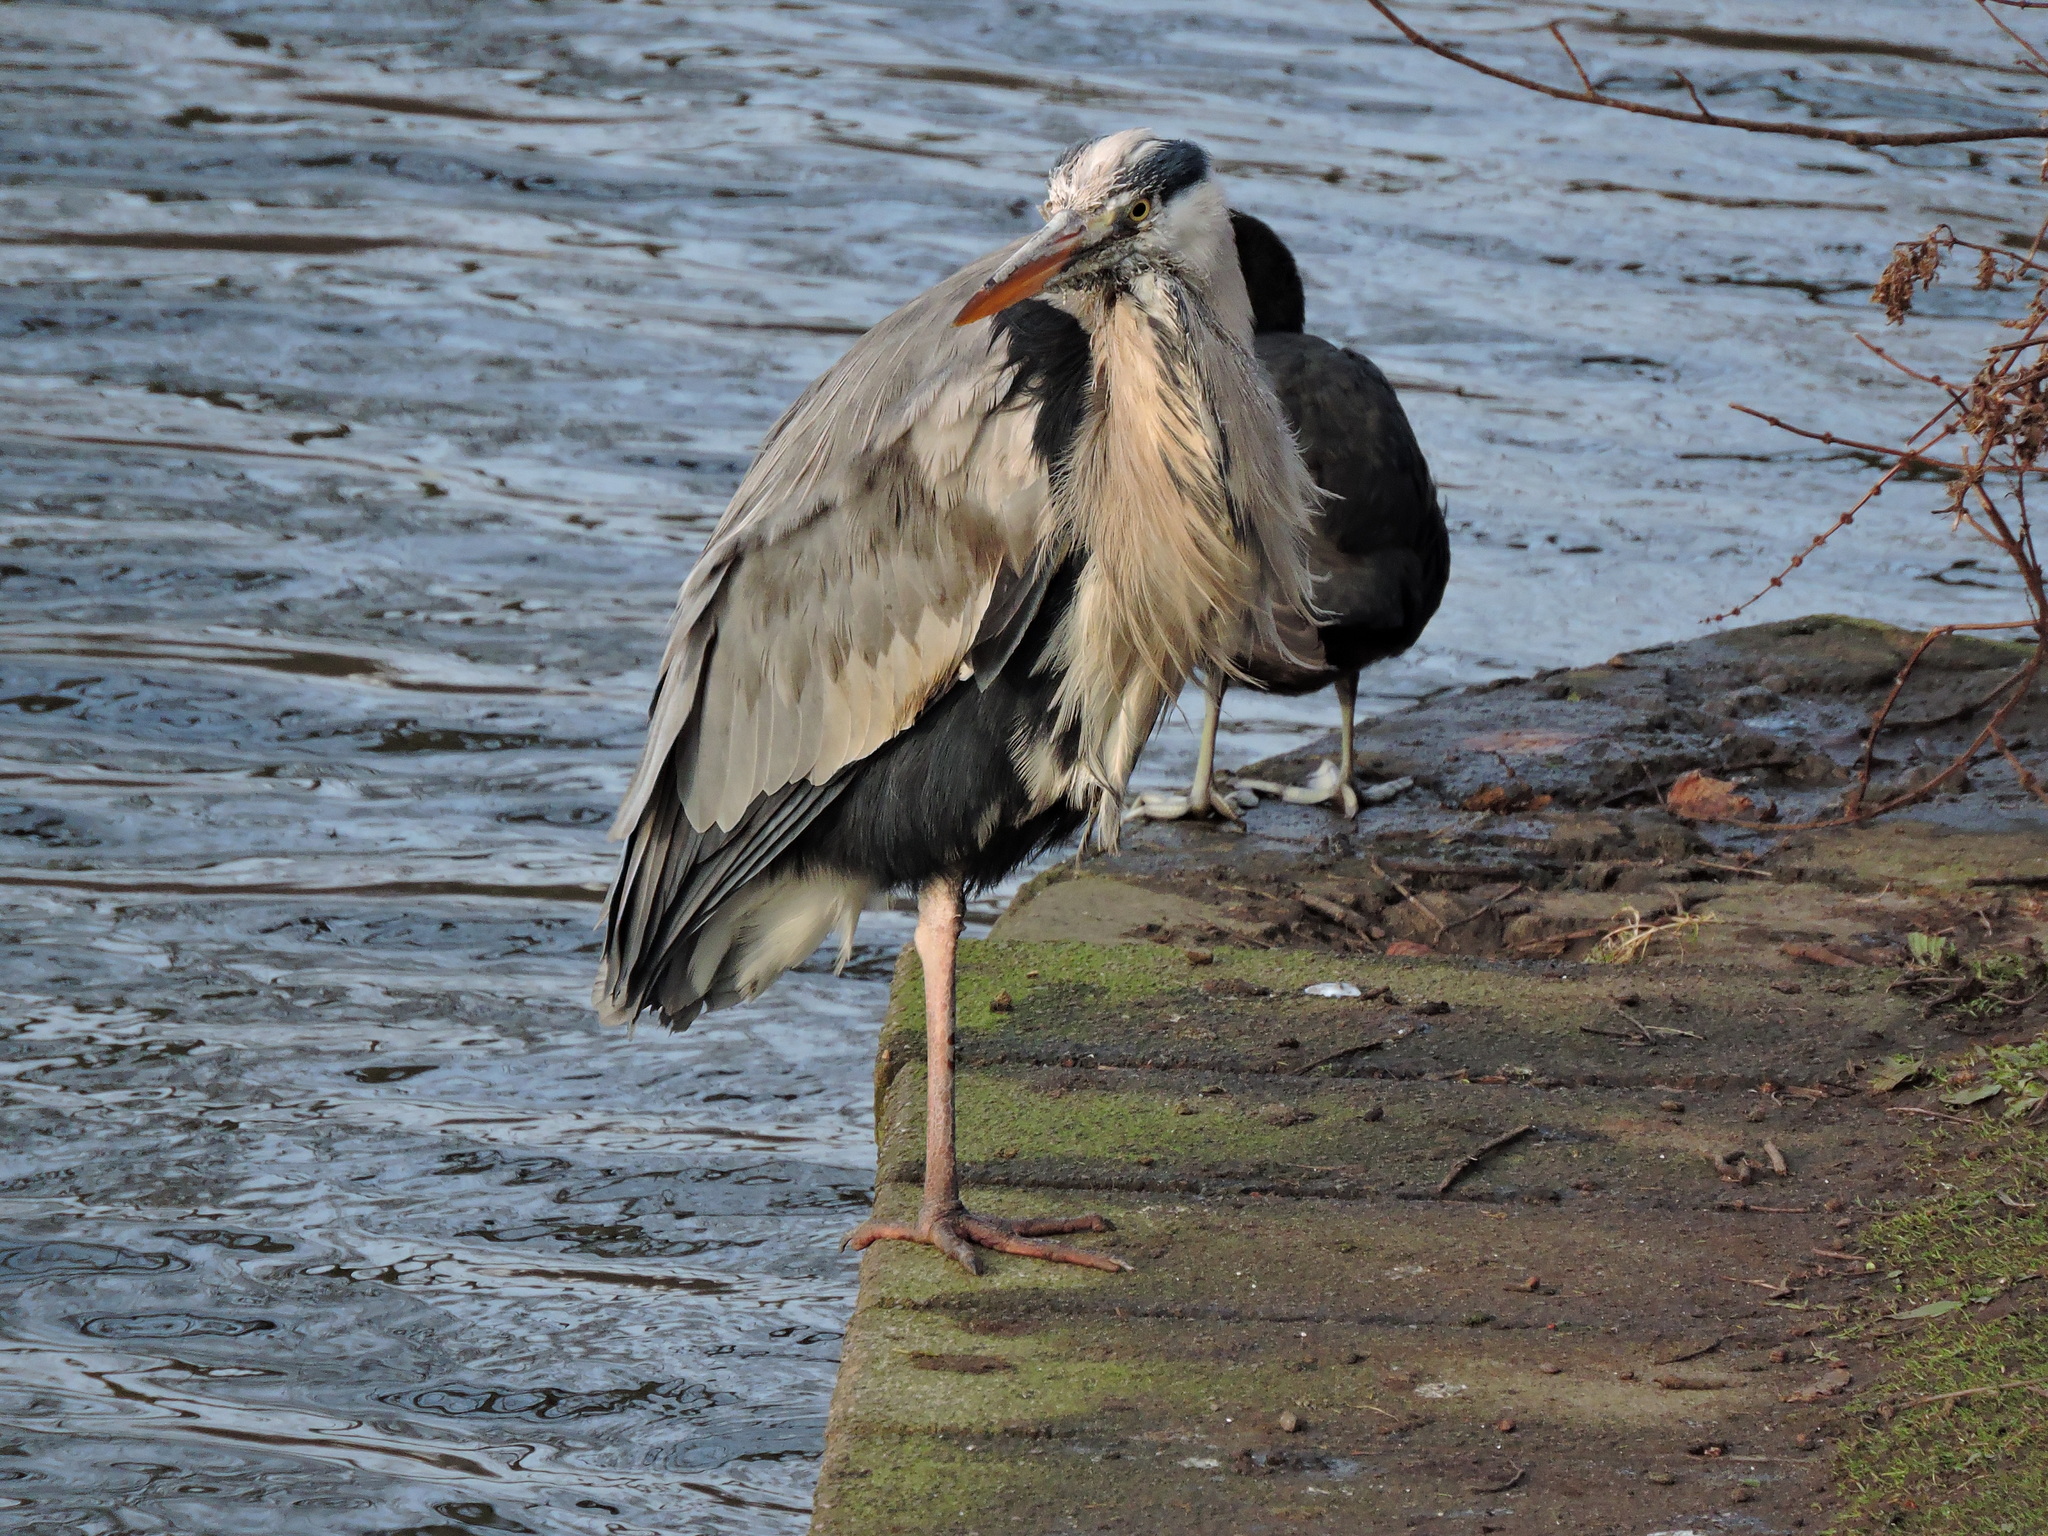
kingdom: Animalia
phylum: Chordata
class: Aves
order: Pelecaniformes
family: Ardeidae
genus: Ardea
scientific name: Ardea cinerea
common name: Grey heron
